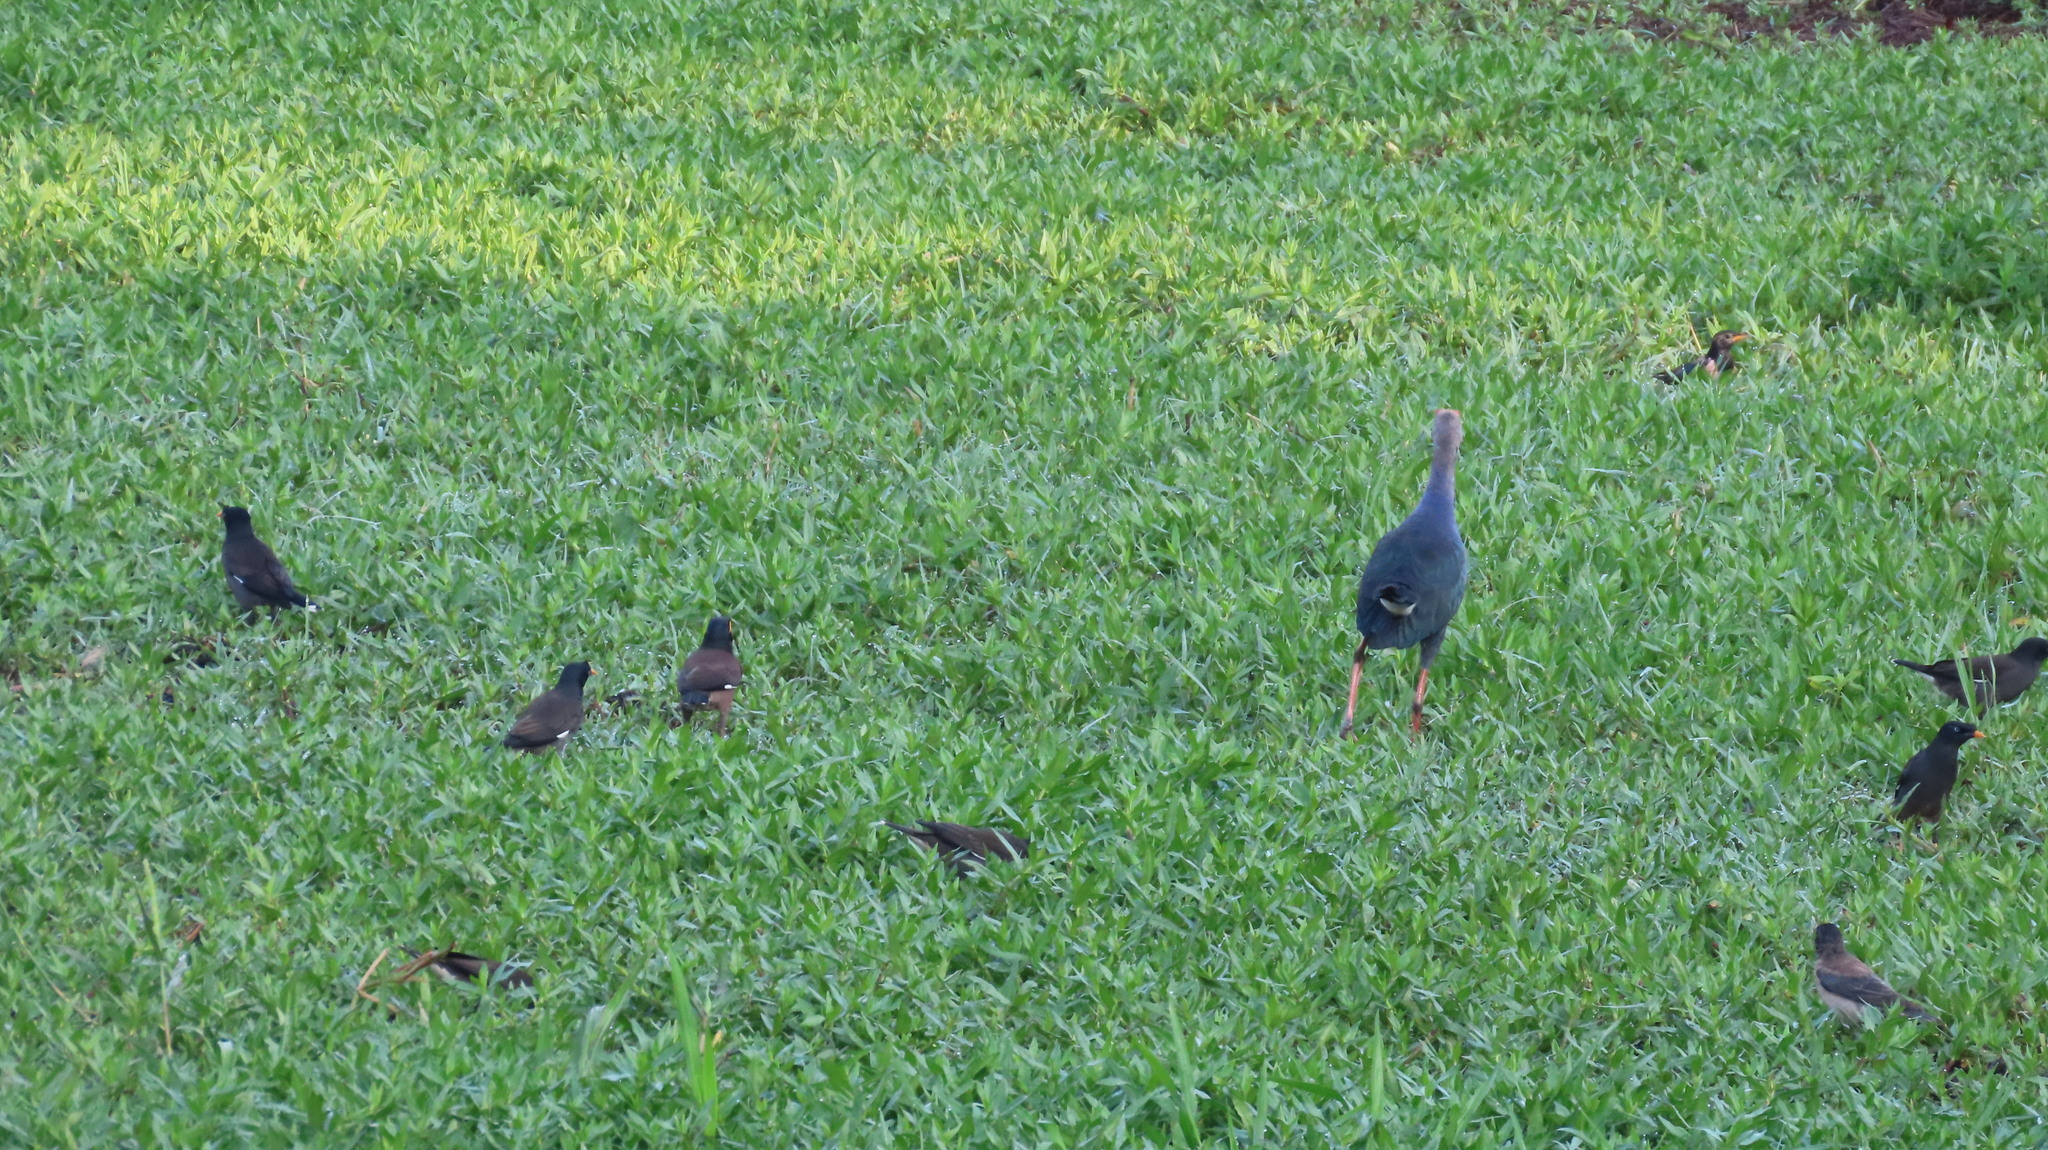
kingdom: Animalia
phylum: Chordata
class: Aves
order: Passeriformes
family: Sturnidae
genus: Pastor
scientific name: Pastor roseus
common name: Rosy starling
